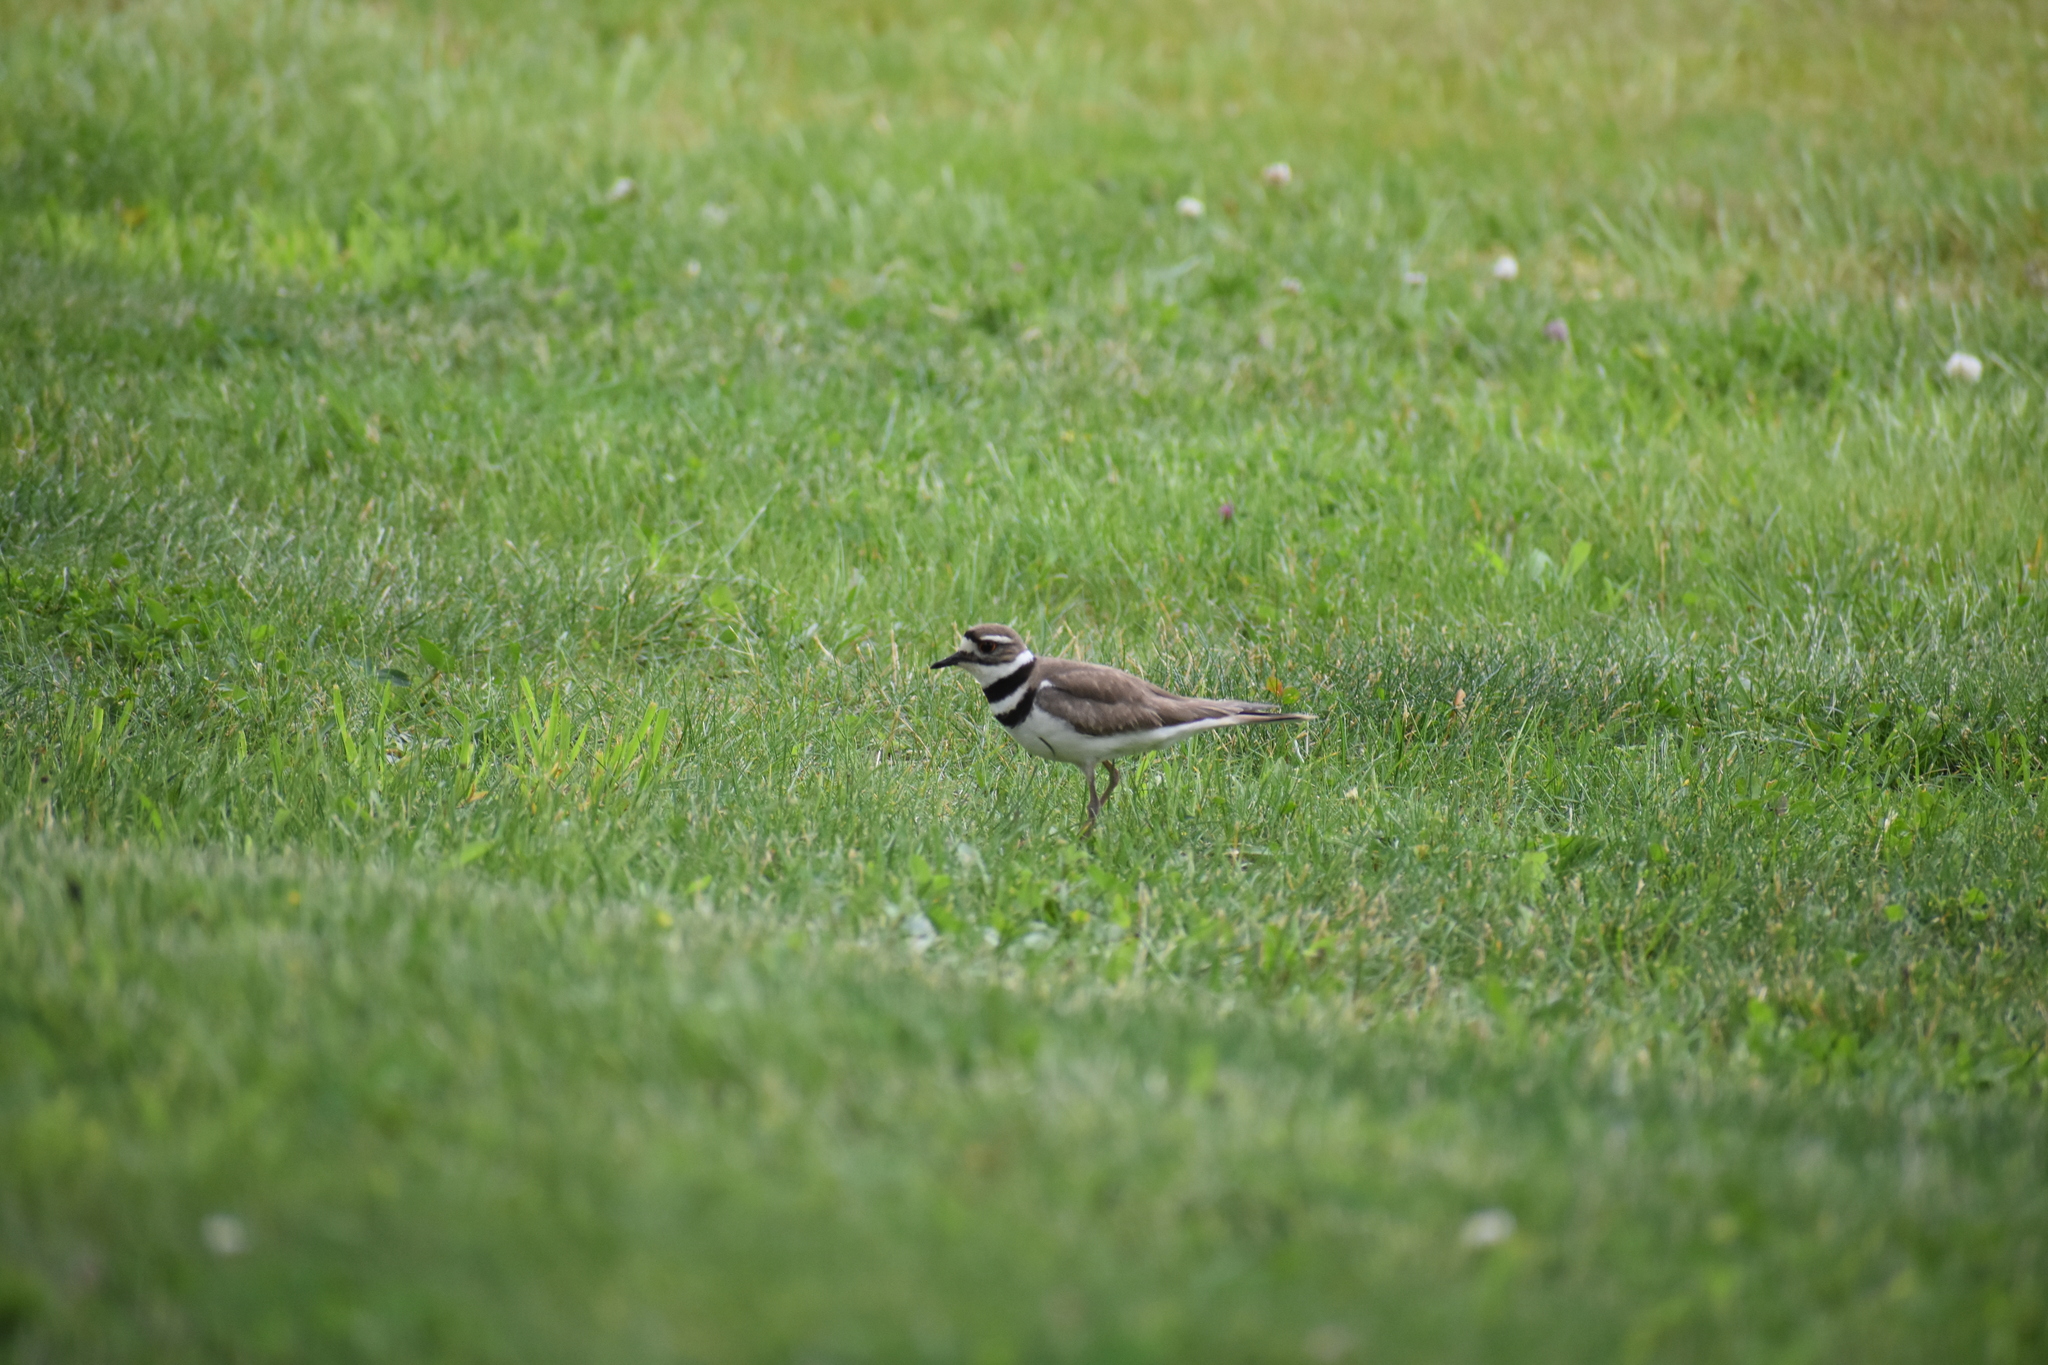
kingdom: Animalia
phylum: Chordata
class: Aves
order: Charadriiformes
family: Charadriidae
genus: Charadrius
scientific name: Charadrius vociferus
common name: Killdeer
